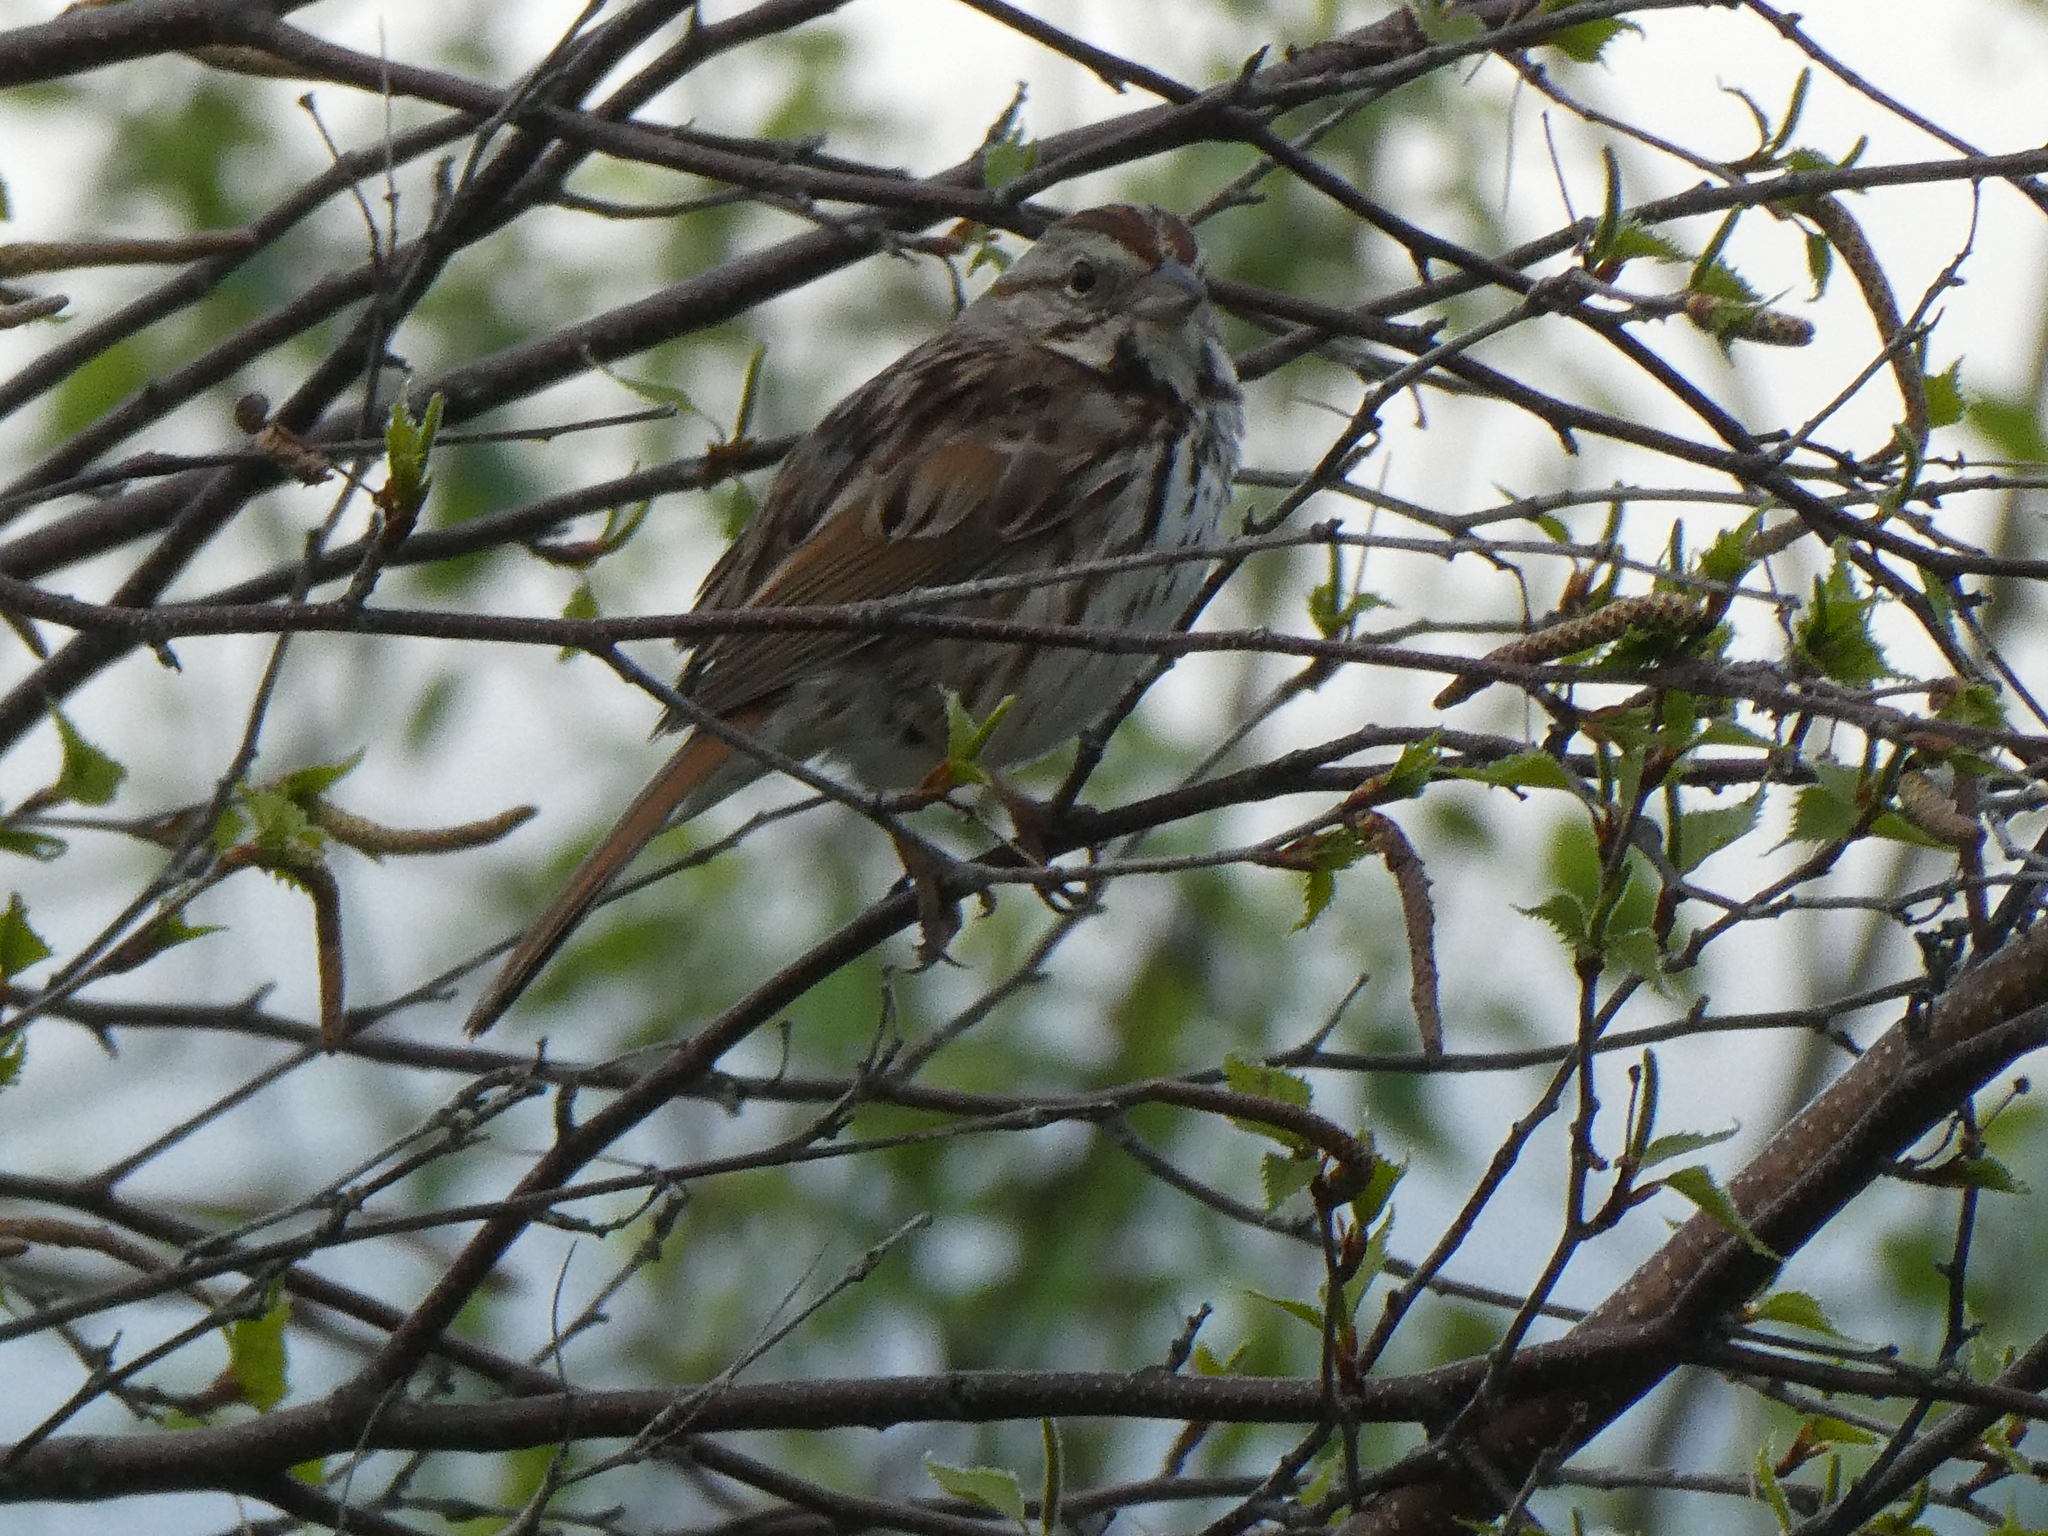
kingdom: Animalia
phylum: Chordata
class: Aves
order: Passeriformes
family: Passerellidae
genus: Melospiza
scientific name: Melospiza melodia
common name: Song sparrow
